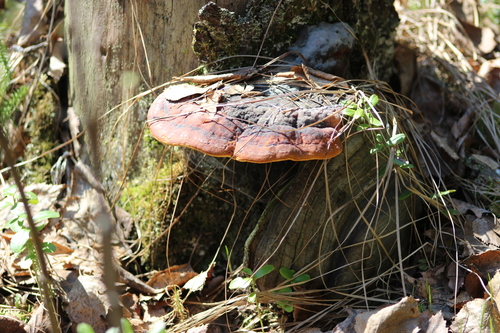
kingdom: Fungi
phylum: Basidiomycota
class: Agaricomycetes
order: Polyporales
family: Fomitopsidaceae
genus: Fomitopsis
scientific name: Fomitopsis pinicola
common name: Red-belted bracket
